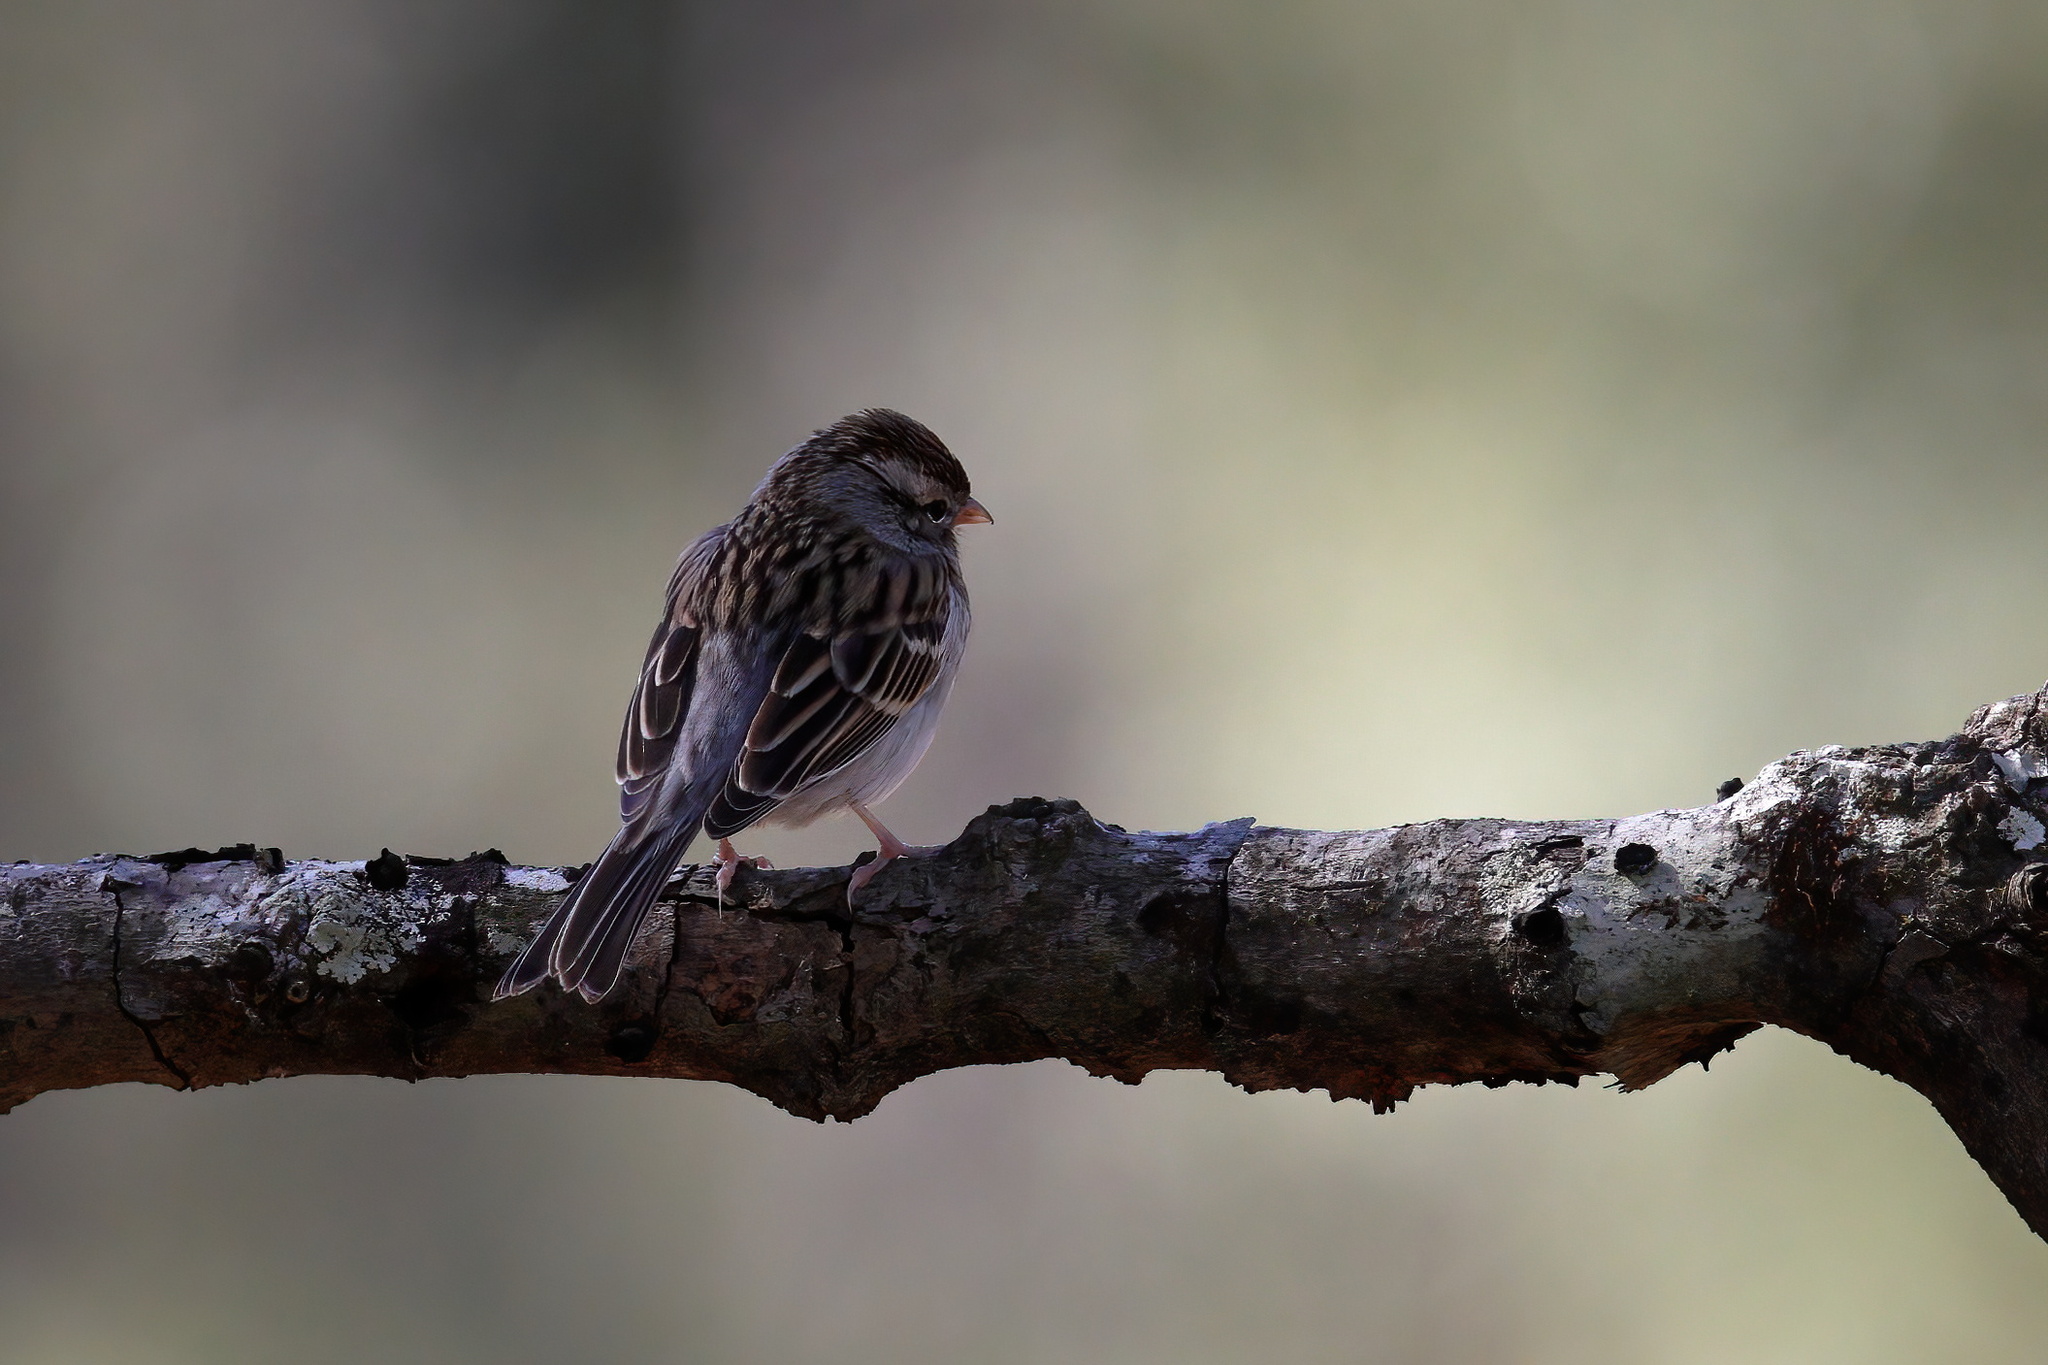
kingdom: Animalia
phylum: Chordata
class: Aves
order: Passeriformes
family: Passerellidae
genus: Spizella
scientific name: Spizella passerina
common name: Chipping sparrow
